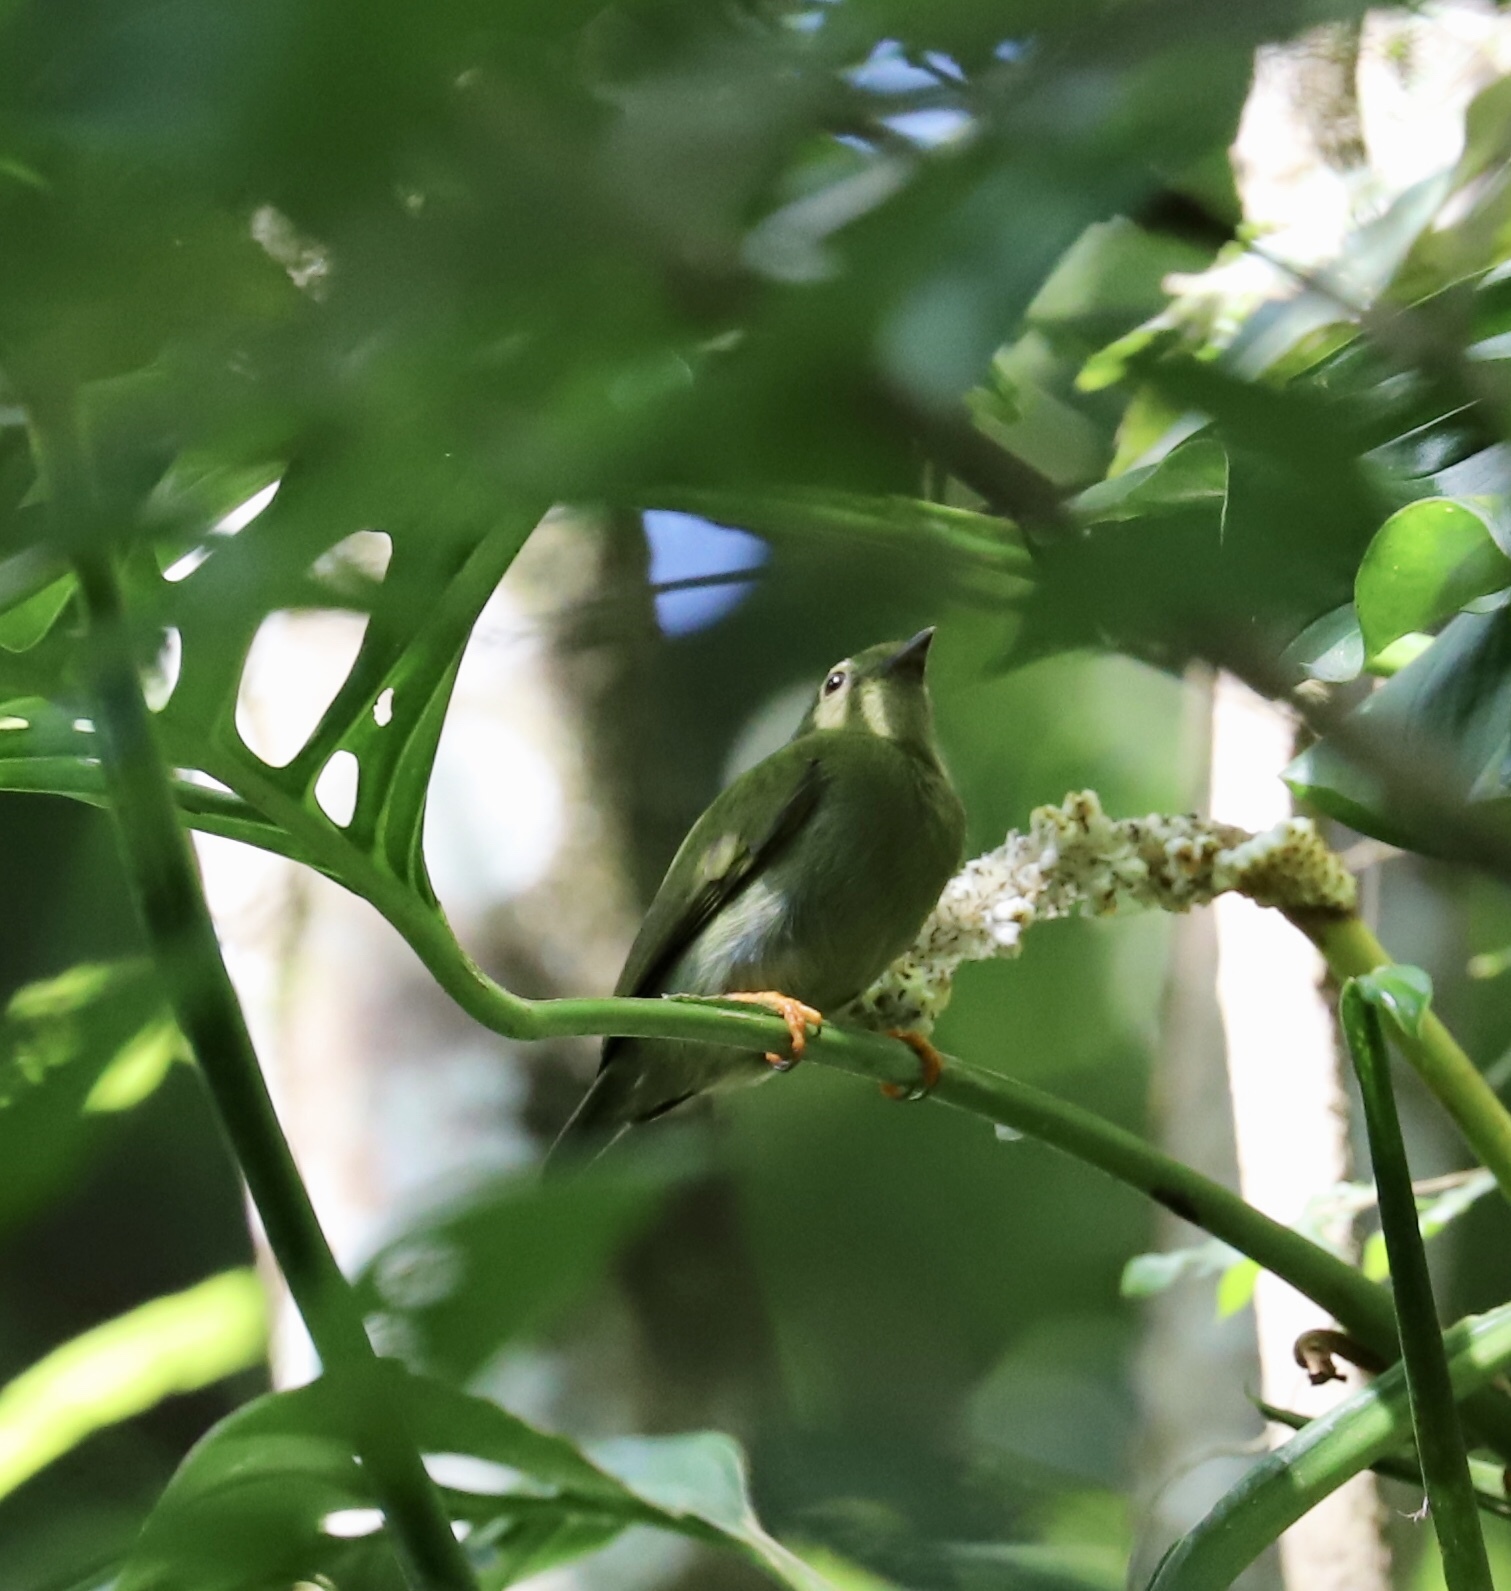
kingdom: Animalia
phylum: Chordata
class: Aves
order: Passeriformes
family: Pipridae
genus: Chiroxiphia
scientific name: Chiroxiphia lanceolata
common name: Lance-tailed manakin
